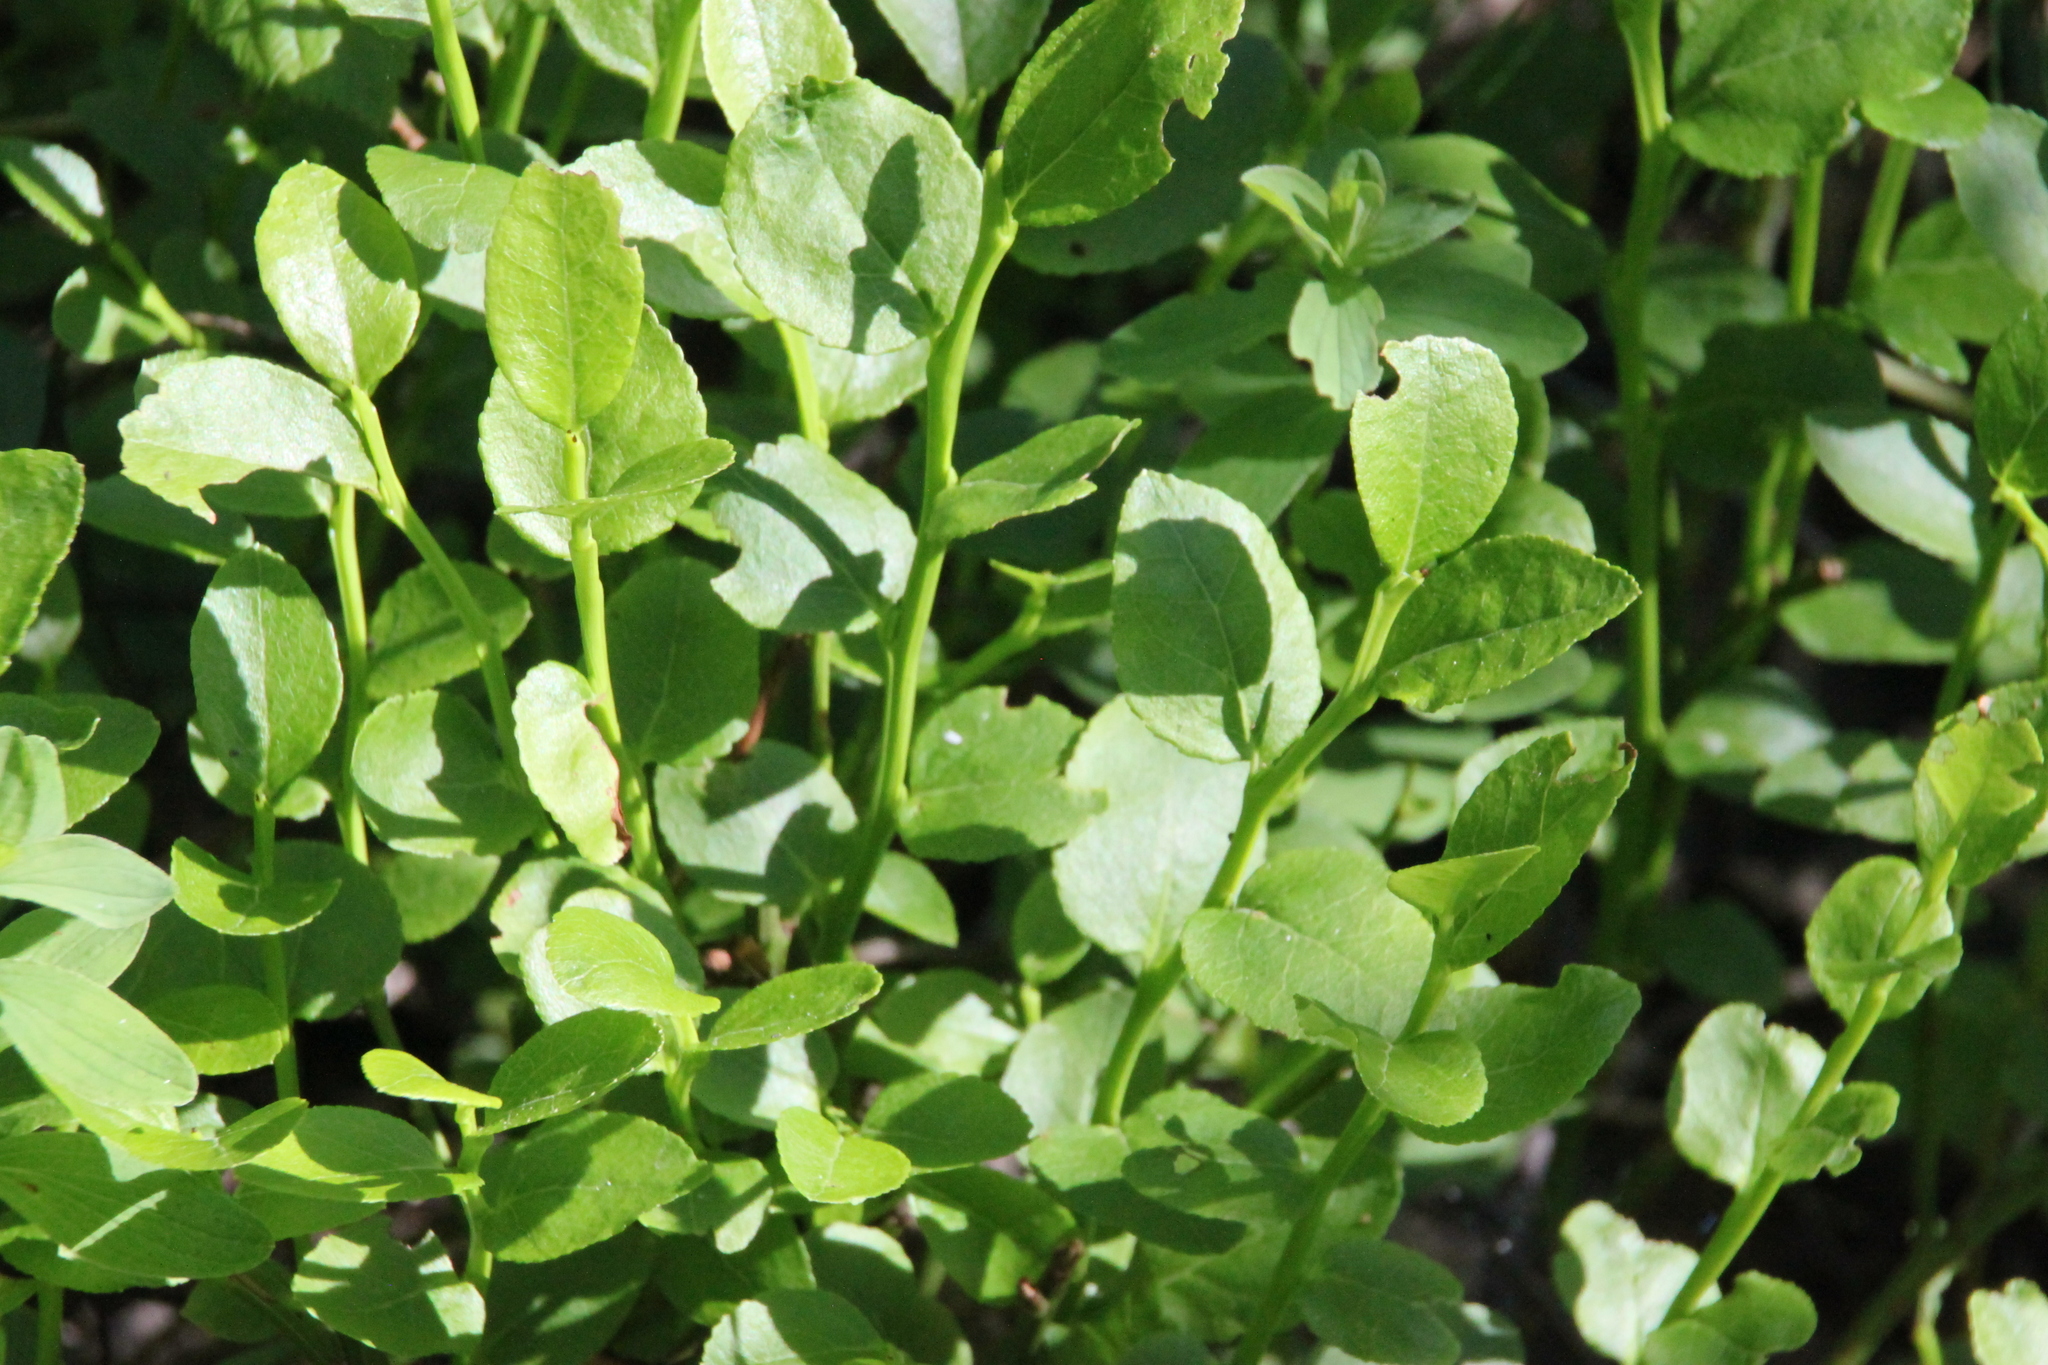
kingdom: Plantae
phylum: Tracheophyta
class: Magnoliopsida
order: Ericales
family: Ericaceae
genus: Vaccinium
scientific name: Vaccinium myrtillus
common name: Bilberry
